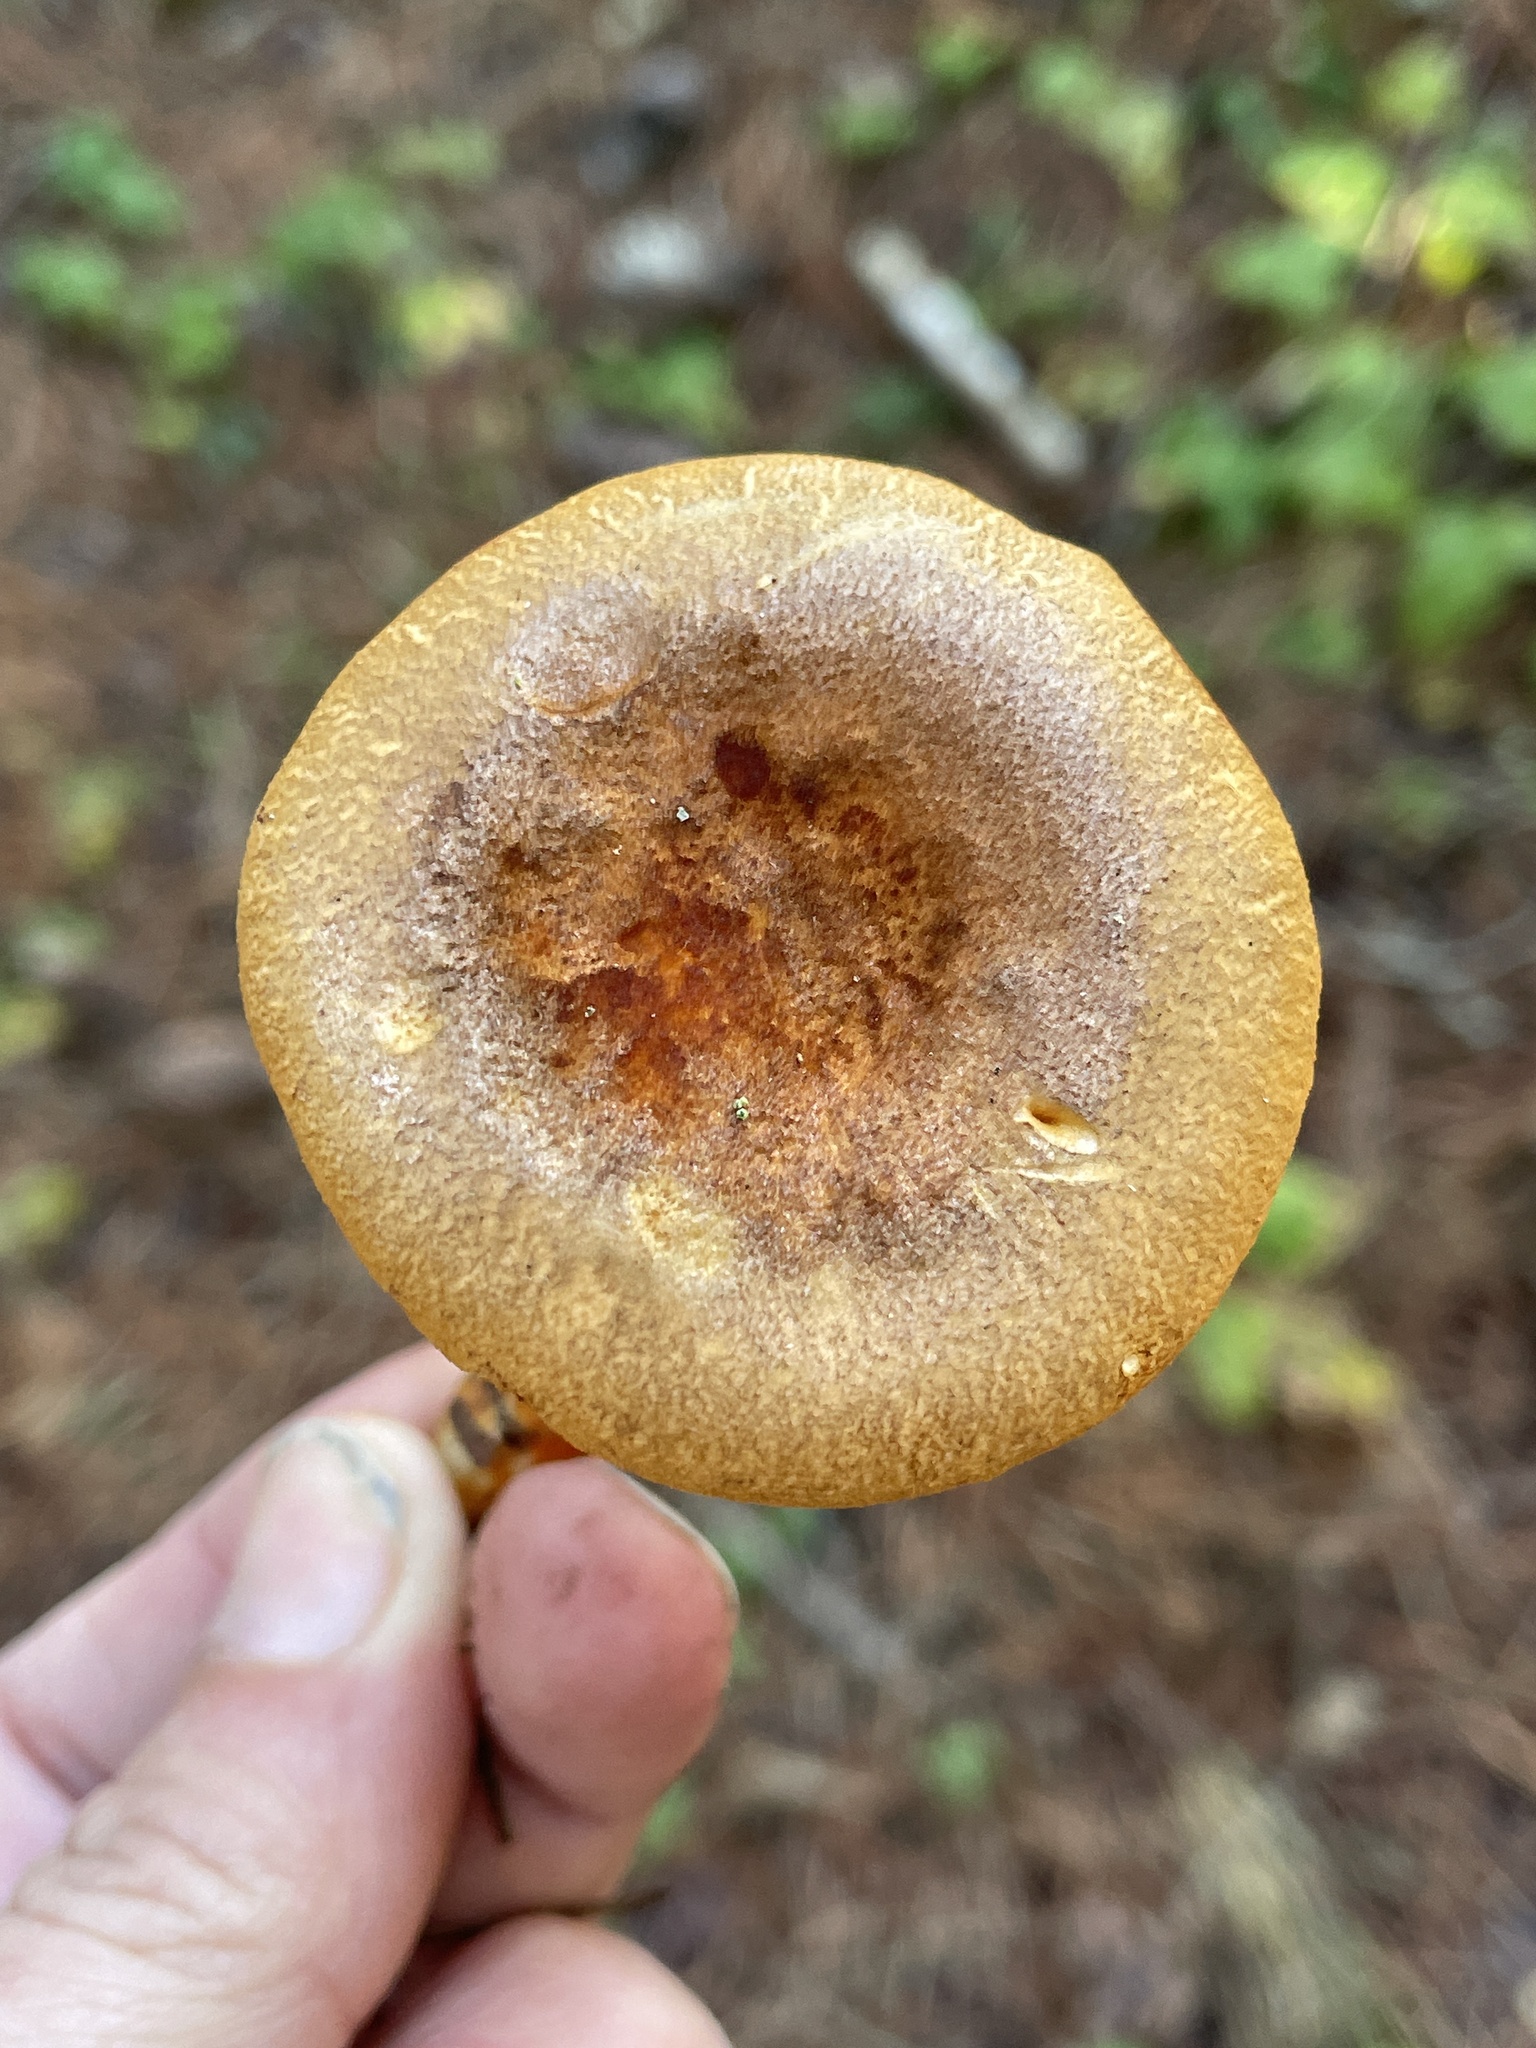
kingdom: Fungi
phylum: Basidiomycota
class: Agaricomycetes
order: Boletales
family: Hygrophoropsidaceae
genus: Hygrophoropsis
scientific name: Hygrophoropsis aurantiaca
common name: False chanterelle
